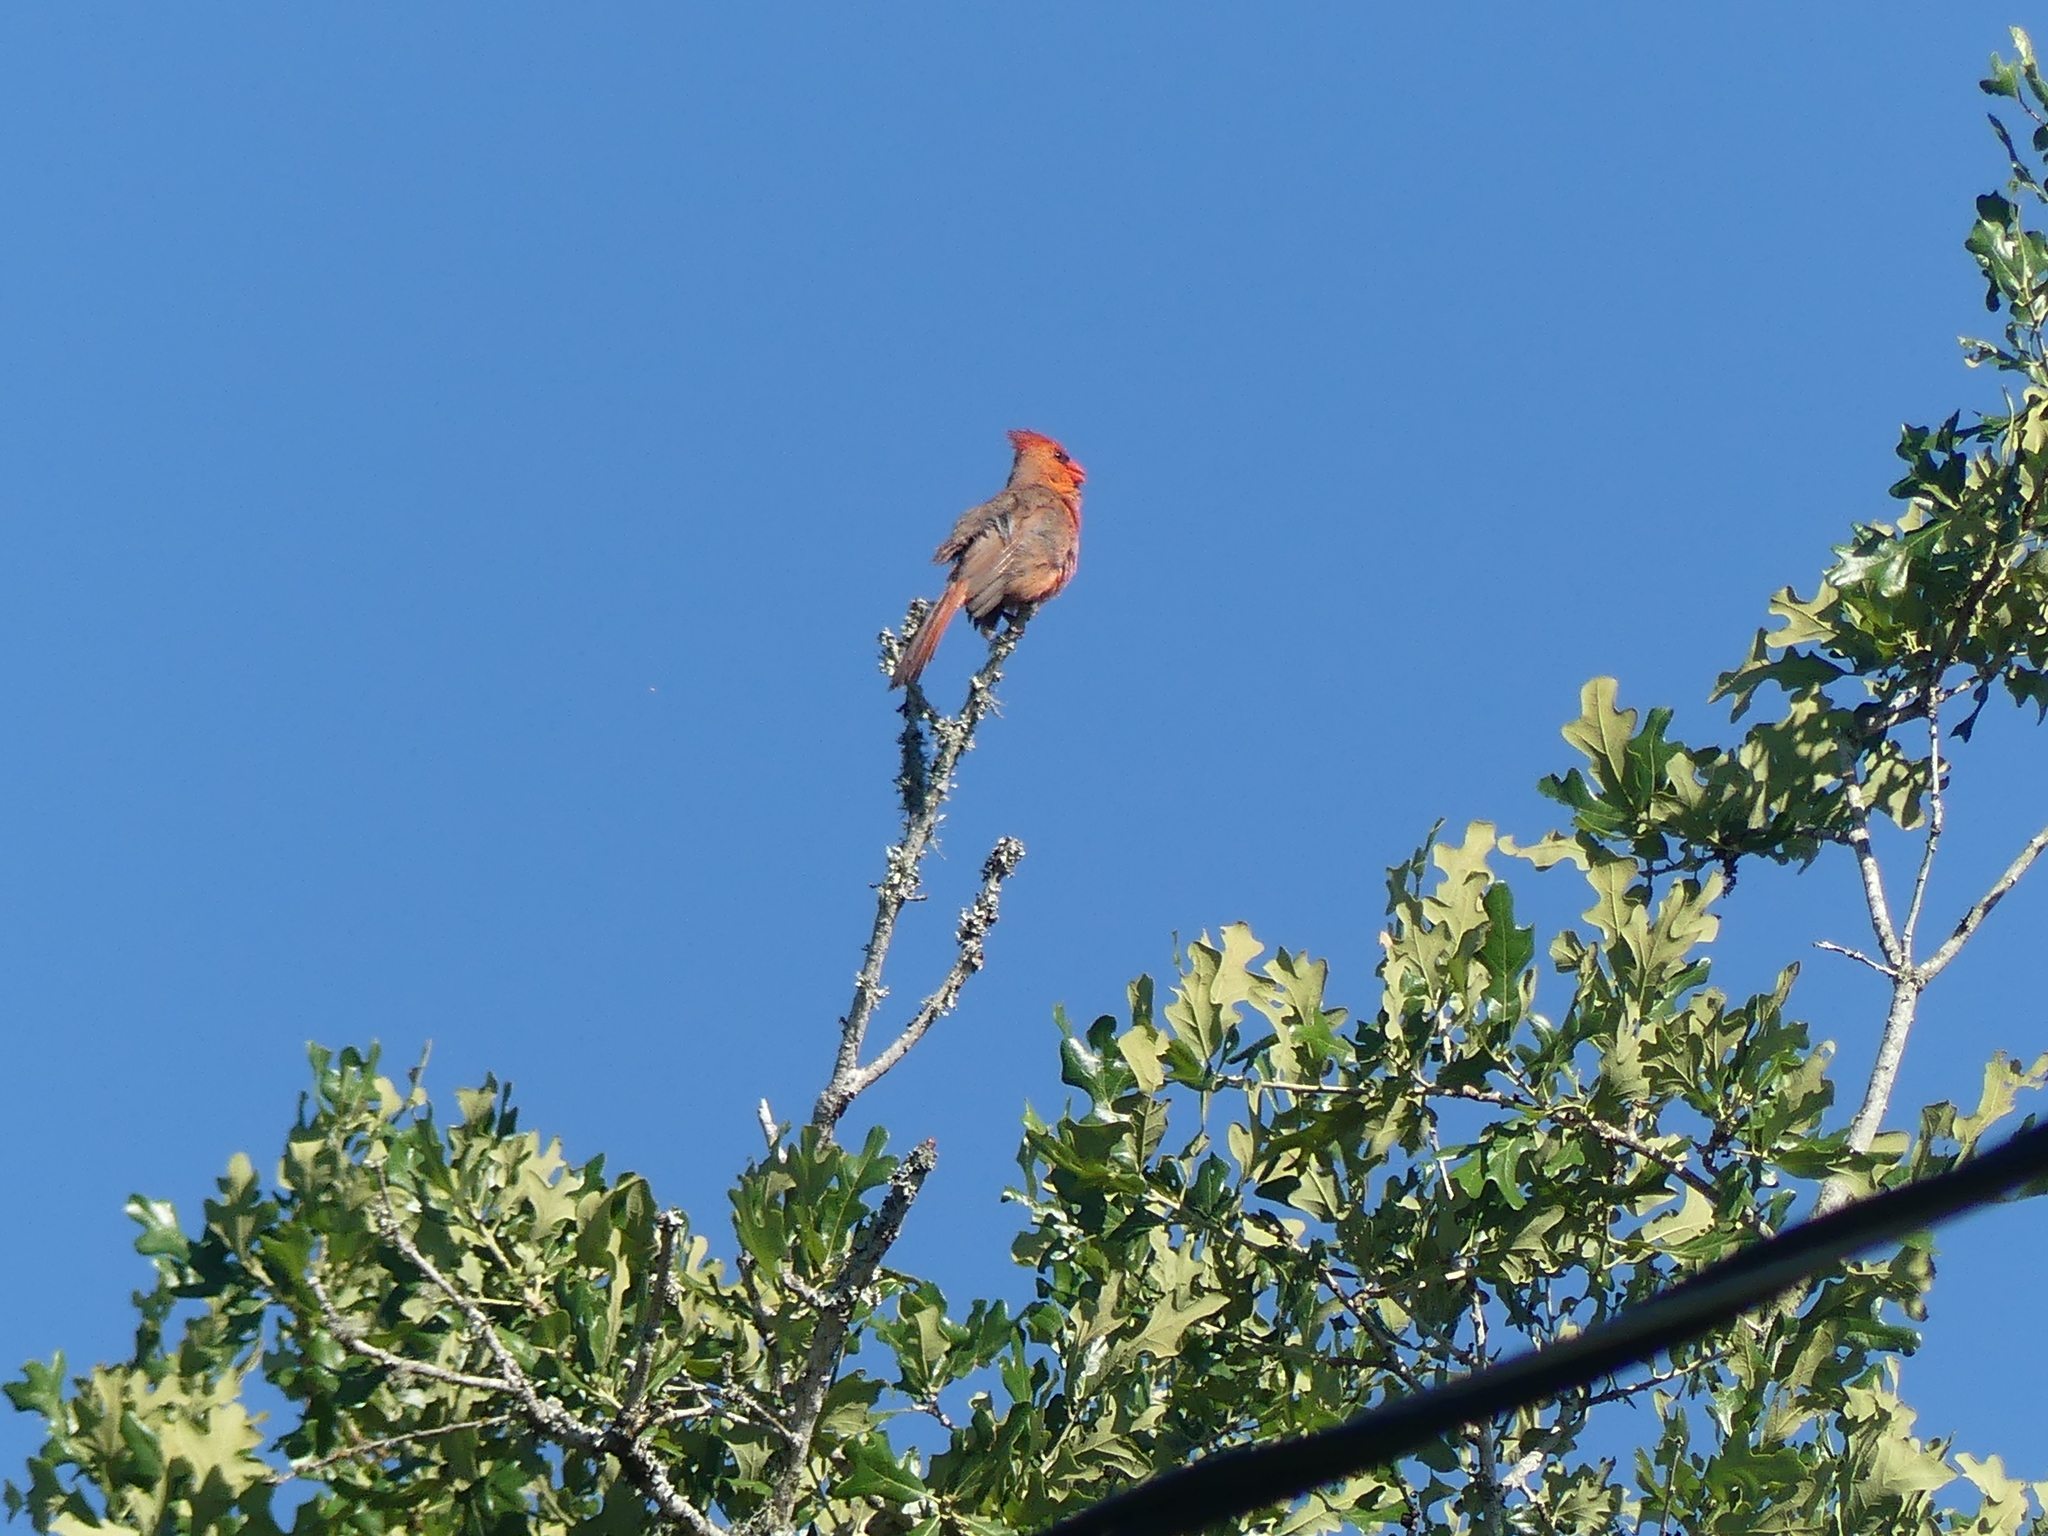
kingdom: Animalia
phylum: Chordata
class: Aves
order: Passeriformes
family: Cardinalidae
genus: Cardinalis
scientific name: Cardinalis cardinalis
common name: Northern cardinal
